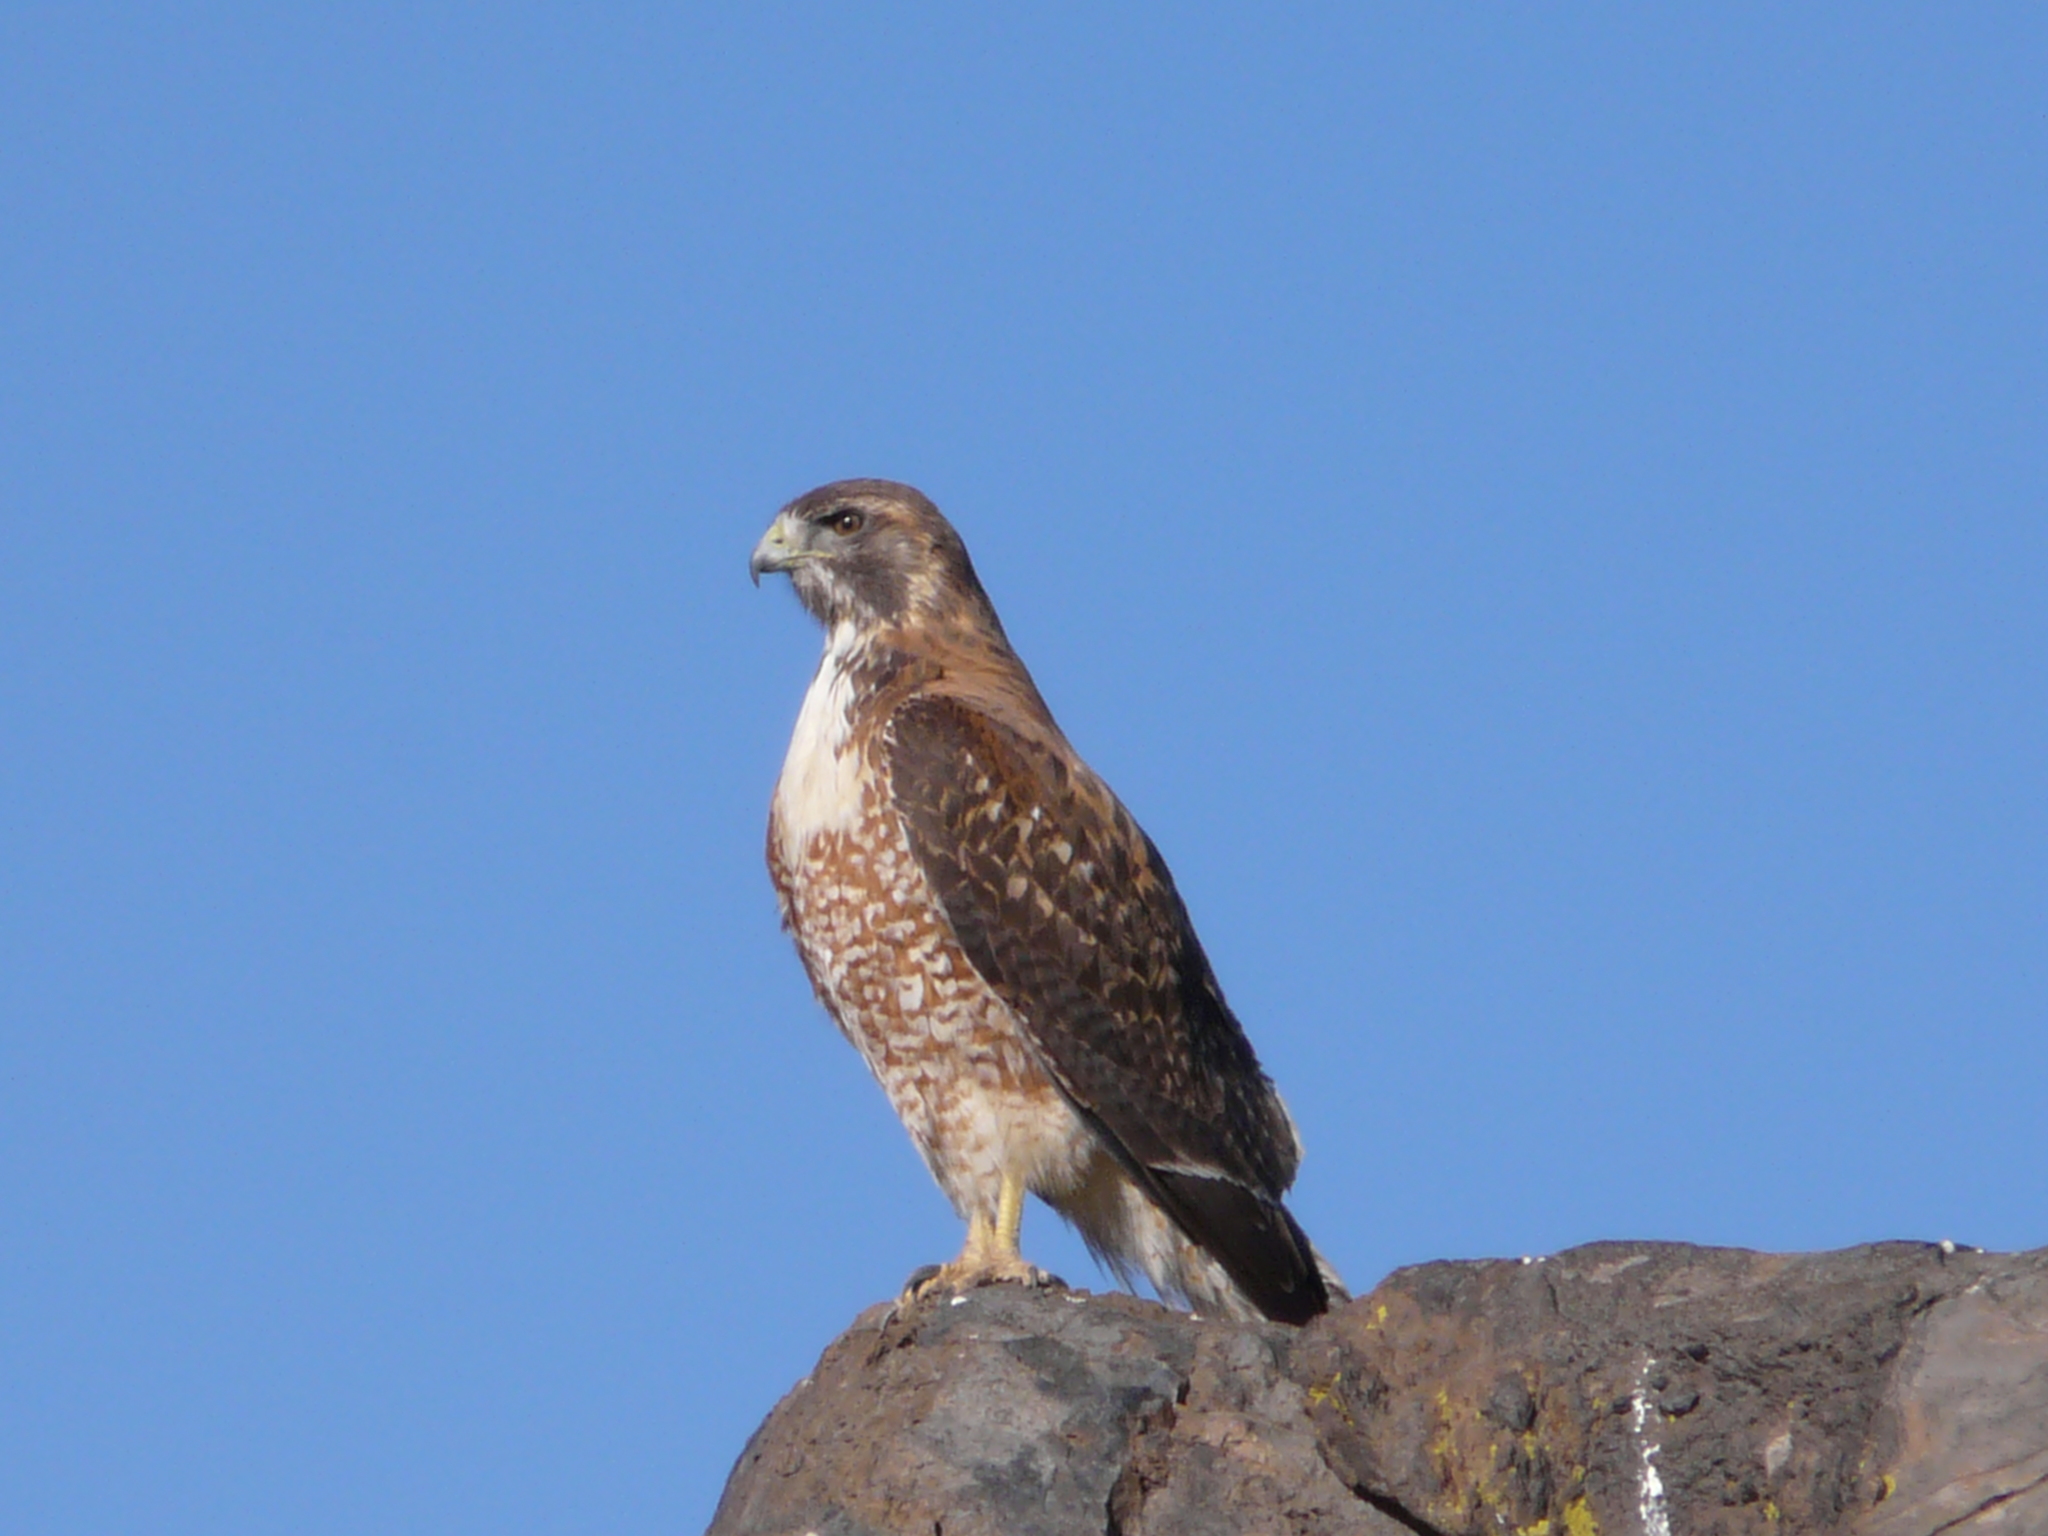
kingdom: Animalia
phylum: Chordata
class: Aves
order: Accipitriformes
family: Accipitridae
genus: Buteo
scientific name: Buteo polyosoma
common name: Variable hawk
